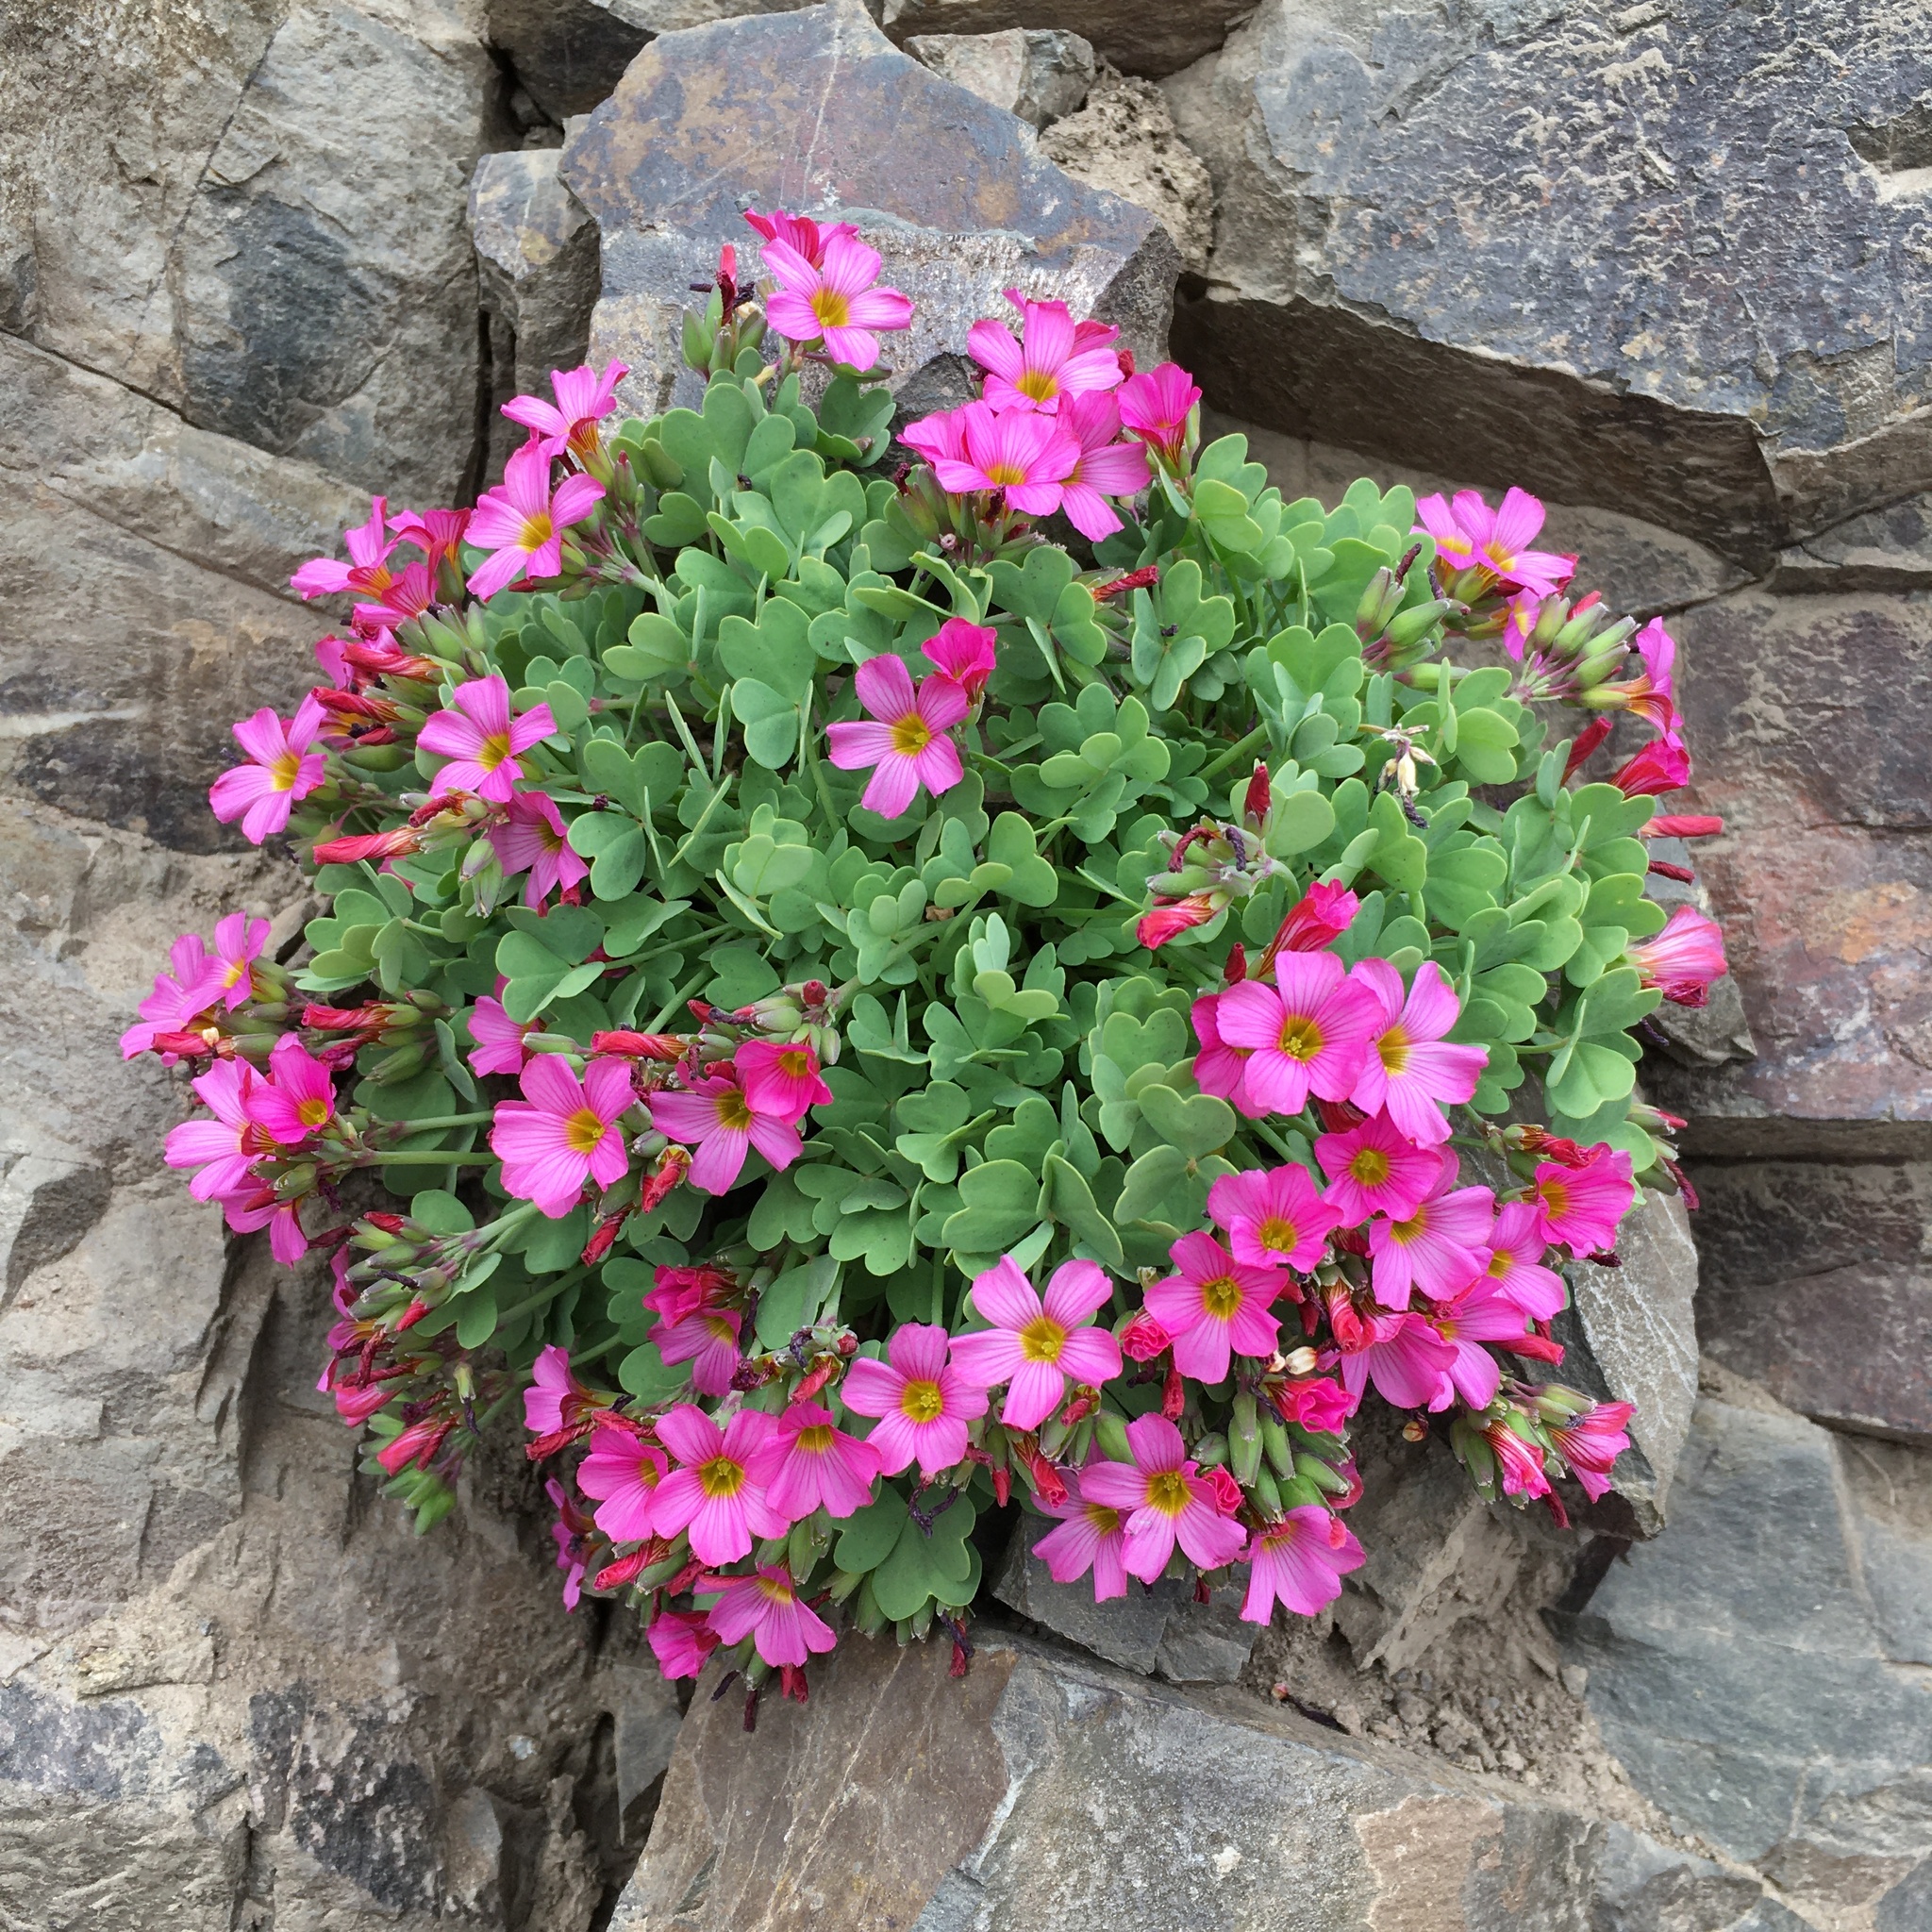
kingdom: Plantae
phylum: Tracheophyta
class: Magnoliopsida
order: Oxalidales
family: Oxalidaceae
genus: Oxalis
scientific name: Oxalis squamata
